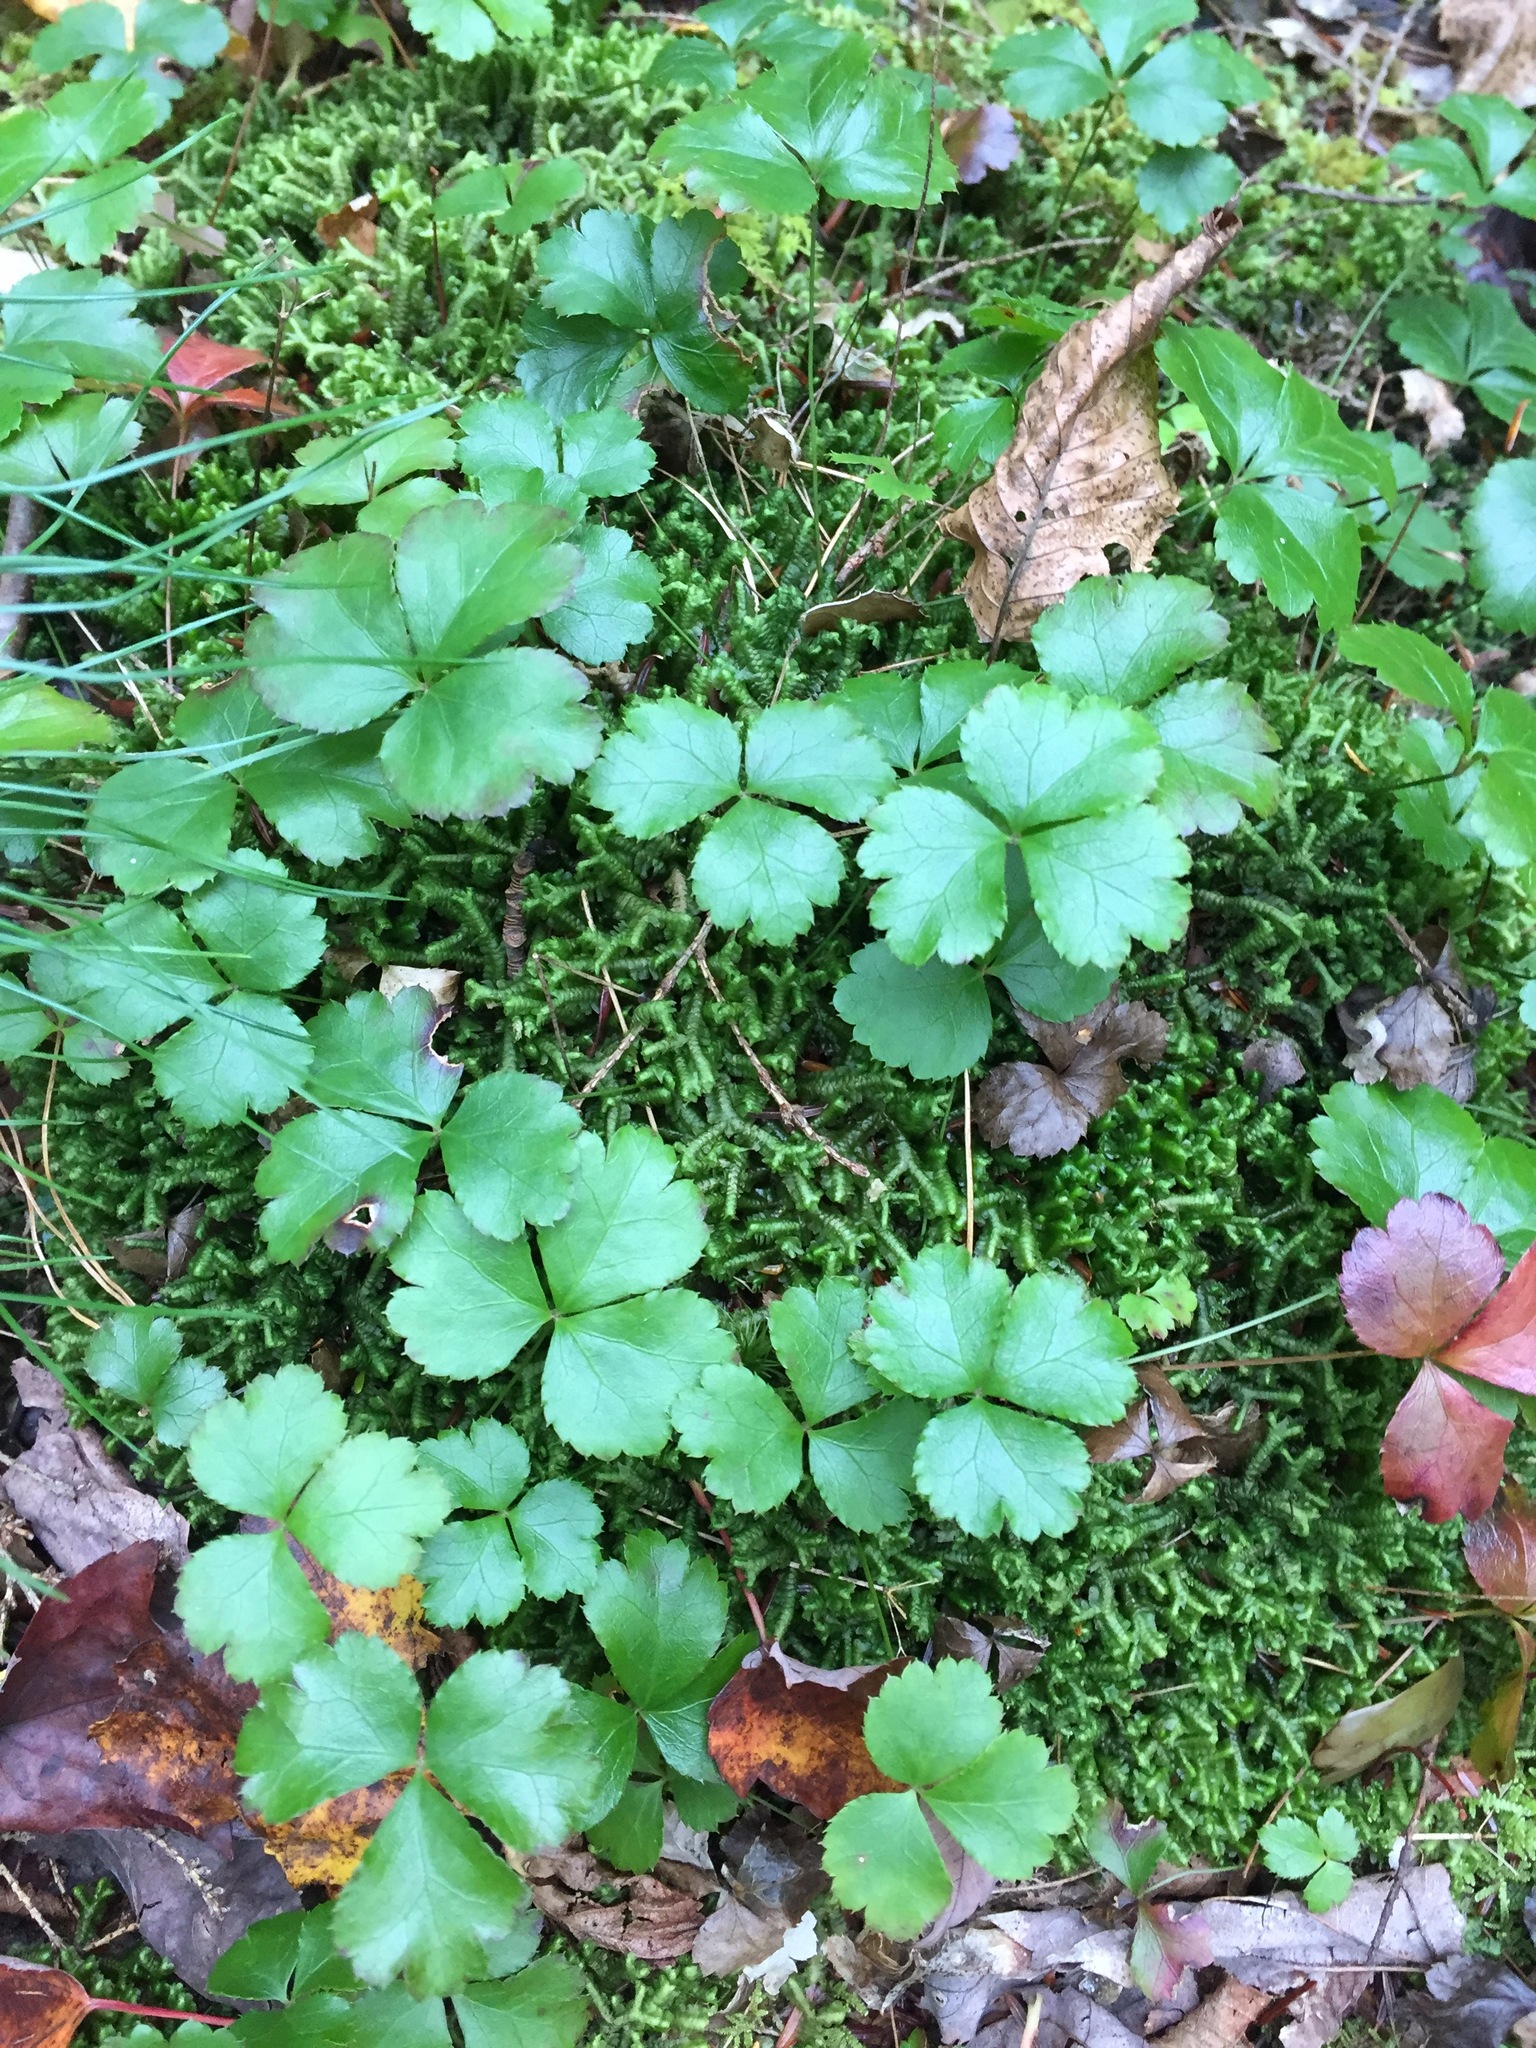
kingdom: Plantae
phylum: Tracheophyta
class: Magnoliopsida
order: Ranunculales
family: Ranunculaceae
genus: Coptis
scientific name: Coptis trifolia
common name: Canker-root
